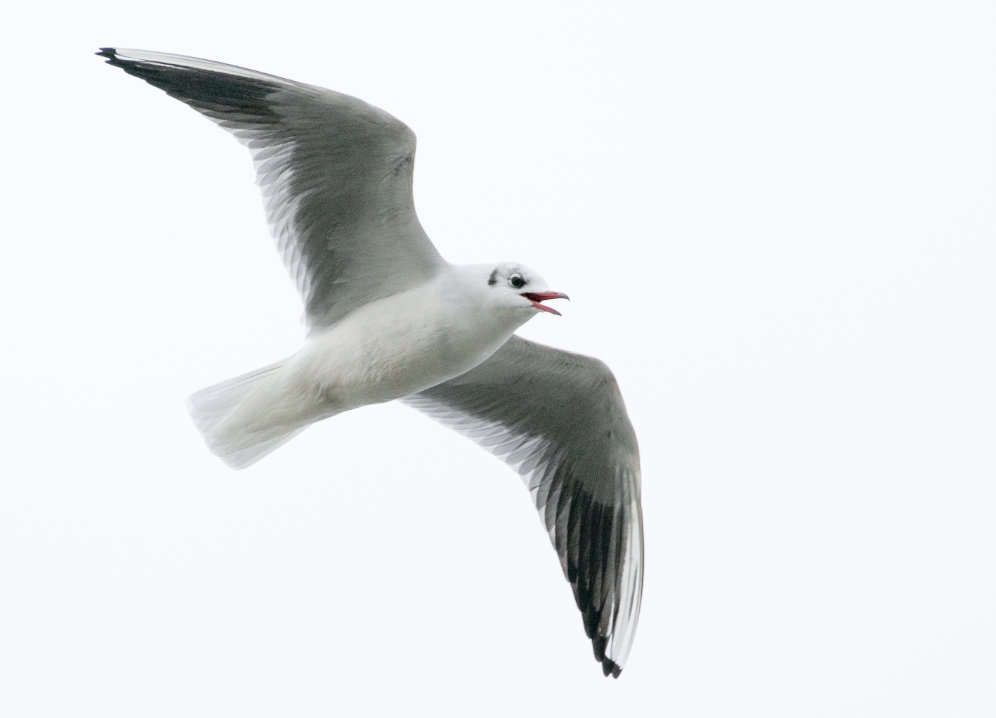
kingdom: Animalia
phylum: Chordata
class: Aves
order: Charadriiformes
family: Laridae
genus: Chroicocephalus
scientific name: Chroicocephalus ridibundus
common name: Black-headed gull
